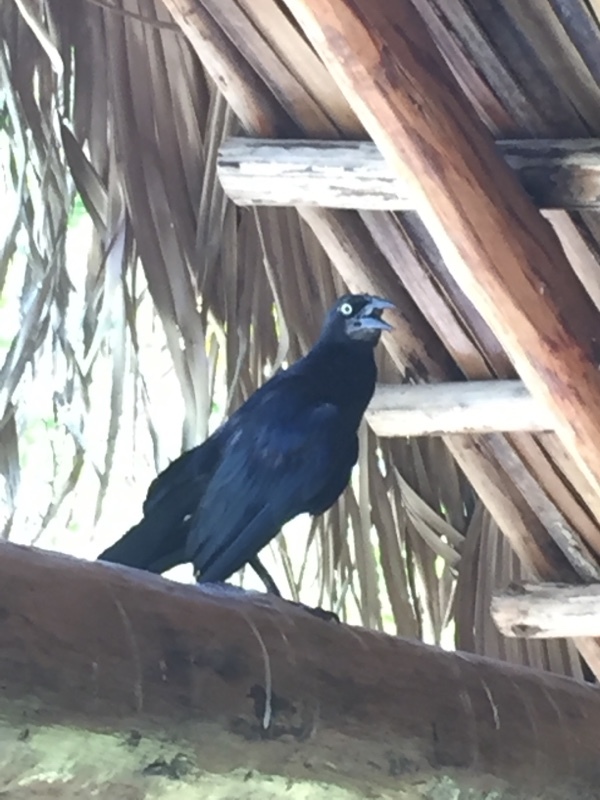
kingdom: Animalia
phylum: Chordata
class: Aves
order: Passeriformes
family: Icteridae
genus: Quiscalus
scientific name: Quiscalus niger
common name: Greater antillean grackle
